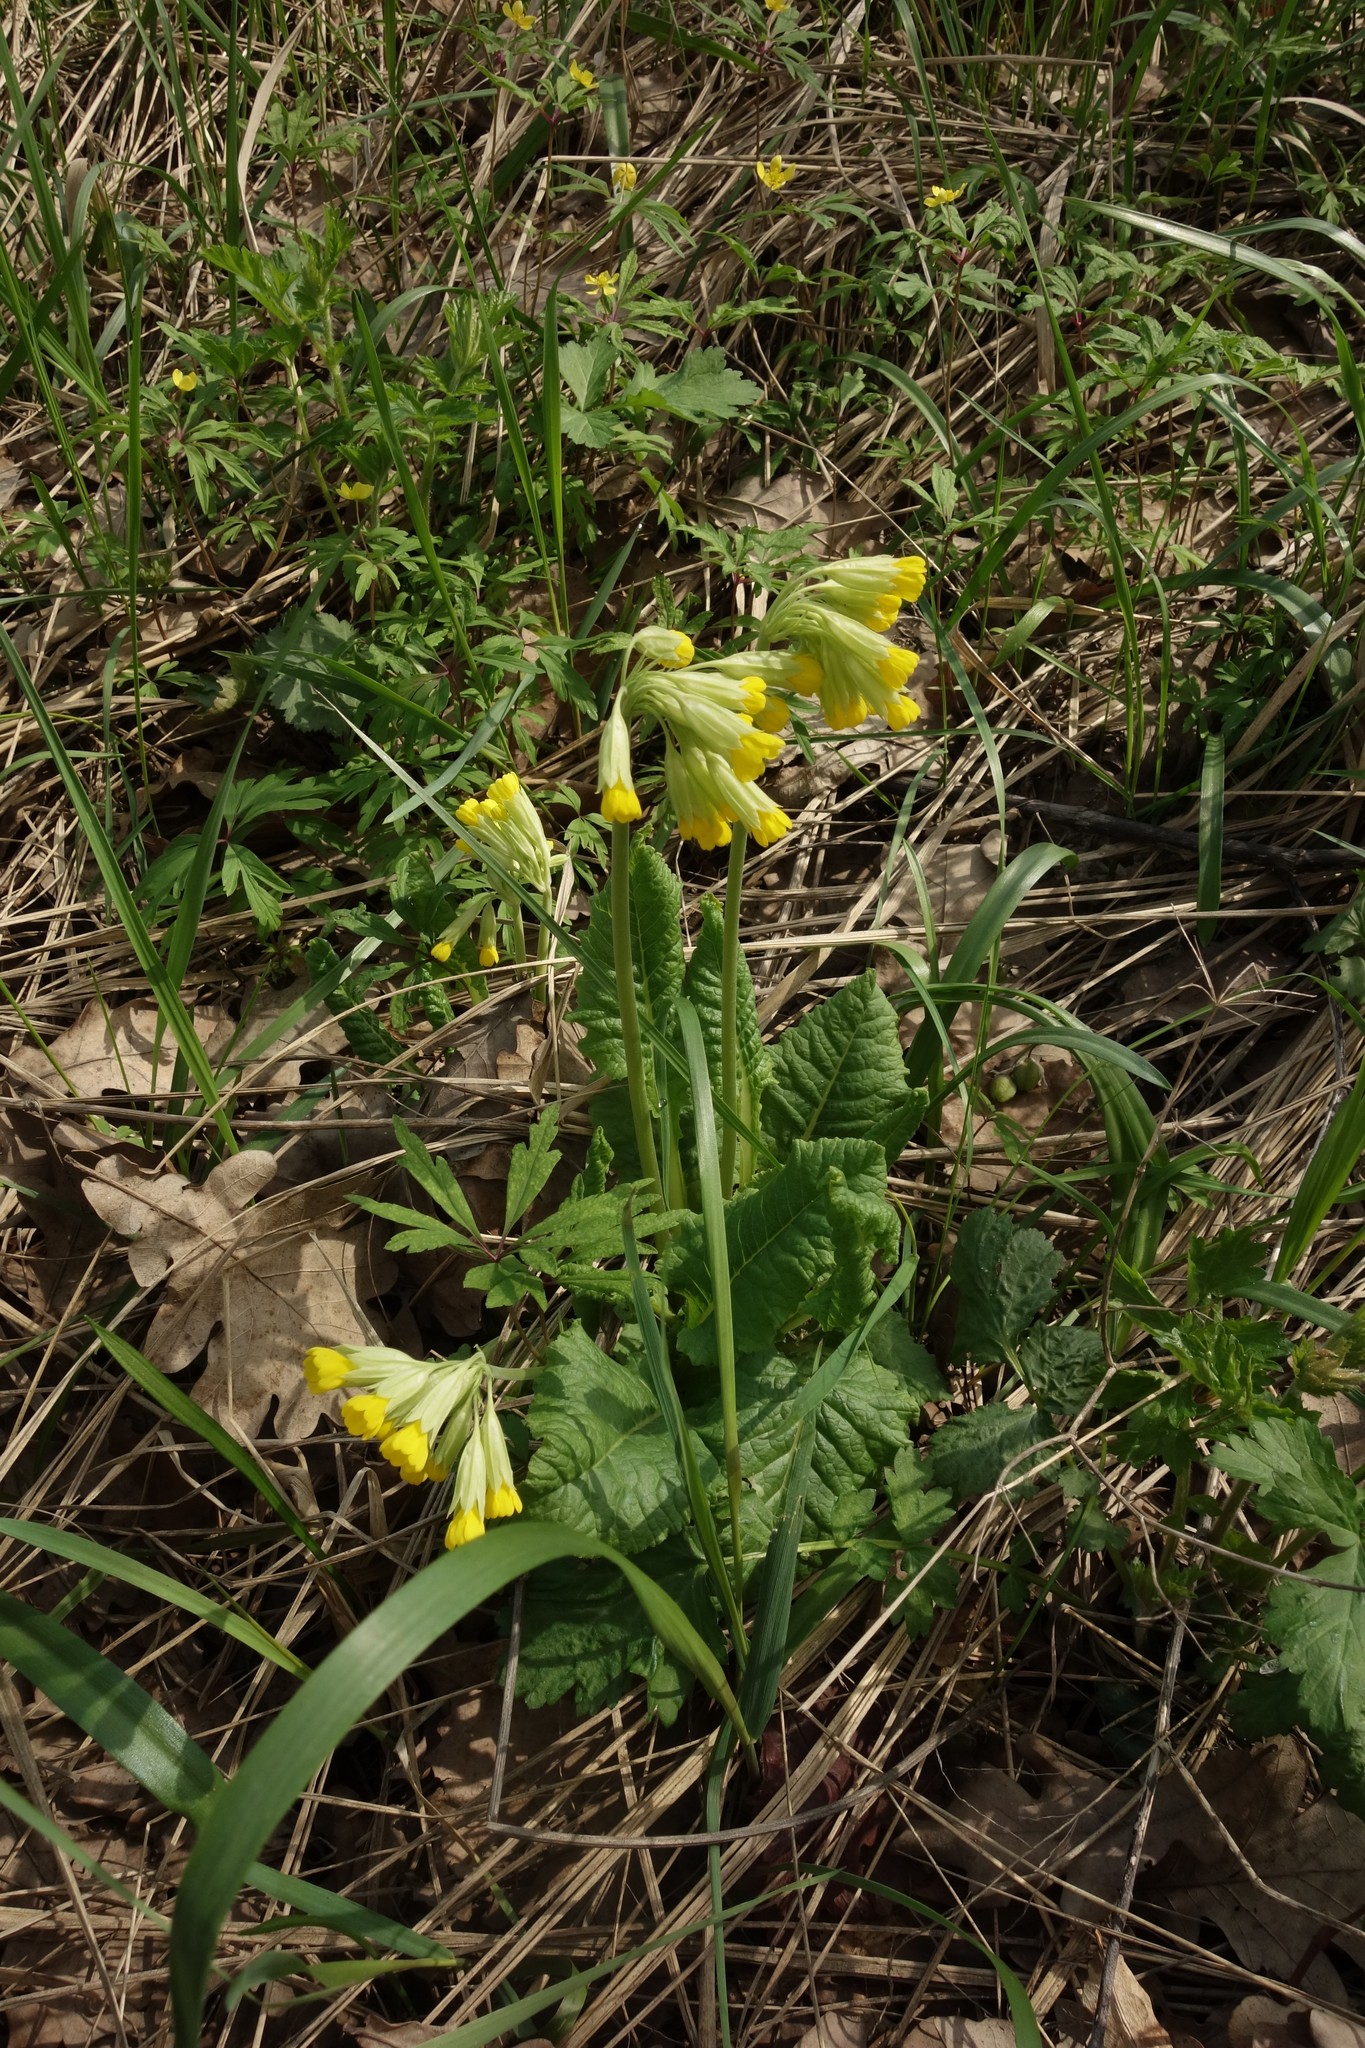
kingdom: Plantae
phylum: Tracheophyta
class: Magnoliopsida
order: Ericales
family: Primulaceae
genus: Primula
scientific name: Primula veris
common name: Cowslip
